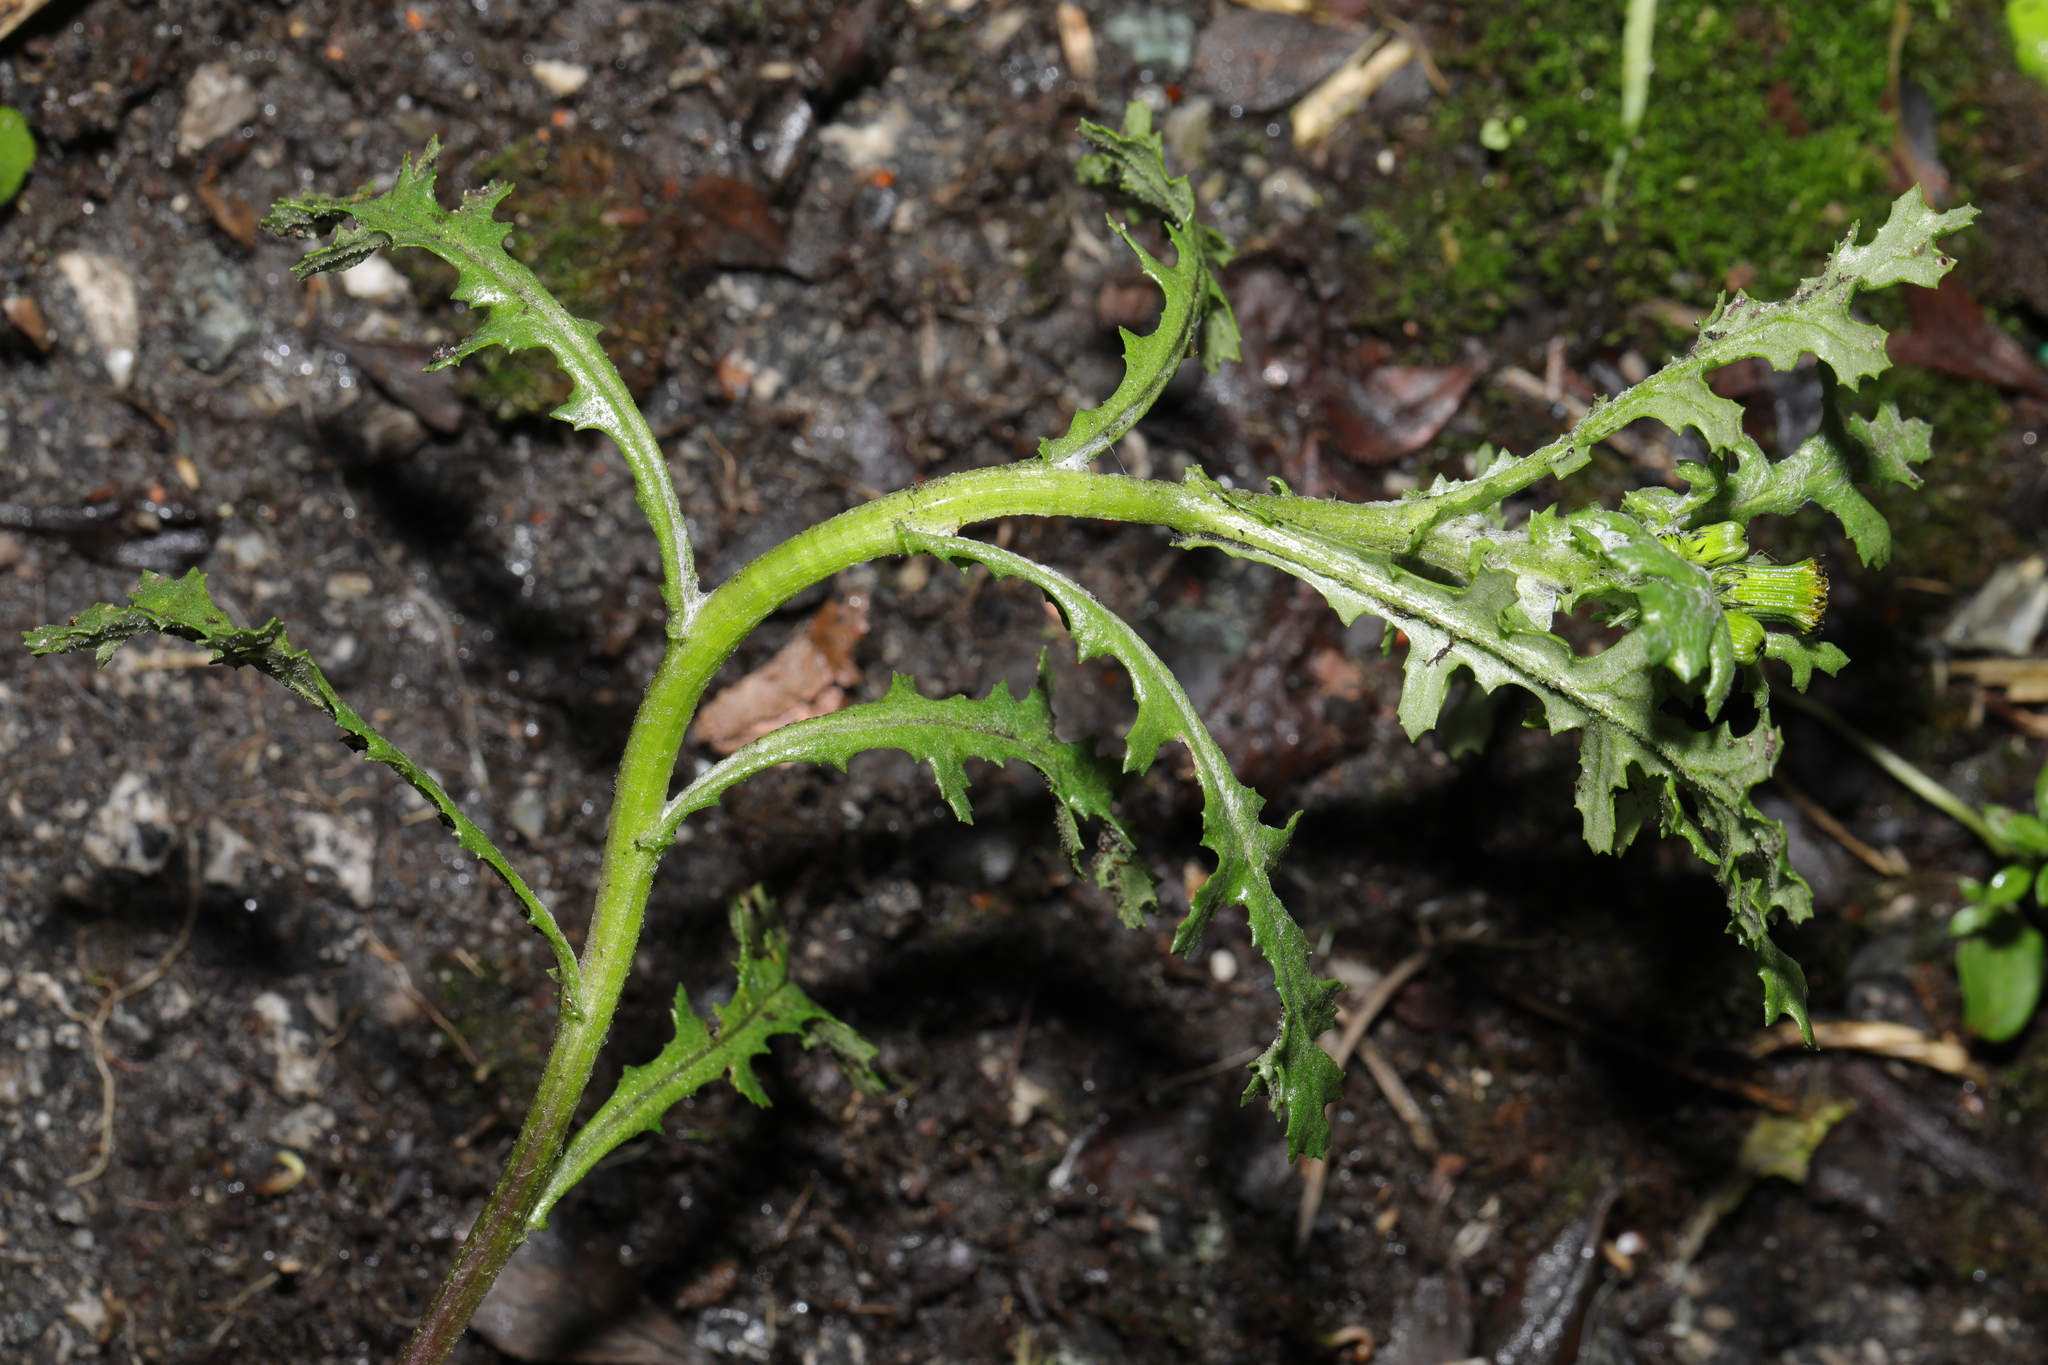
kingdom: Plantae
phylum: Tracheophyta
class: Magnoliopsida
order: Asterales
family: Asteraceae
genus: Senecio
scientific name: Senecio vulgaris
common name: Old-man-in-the-spring
